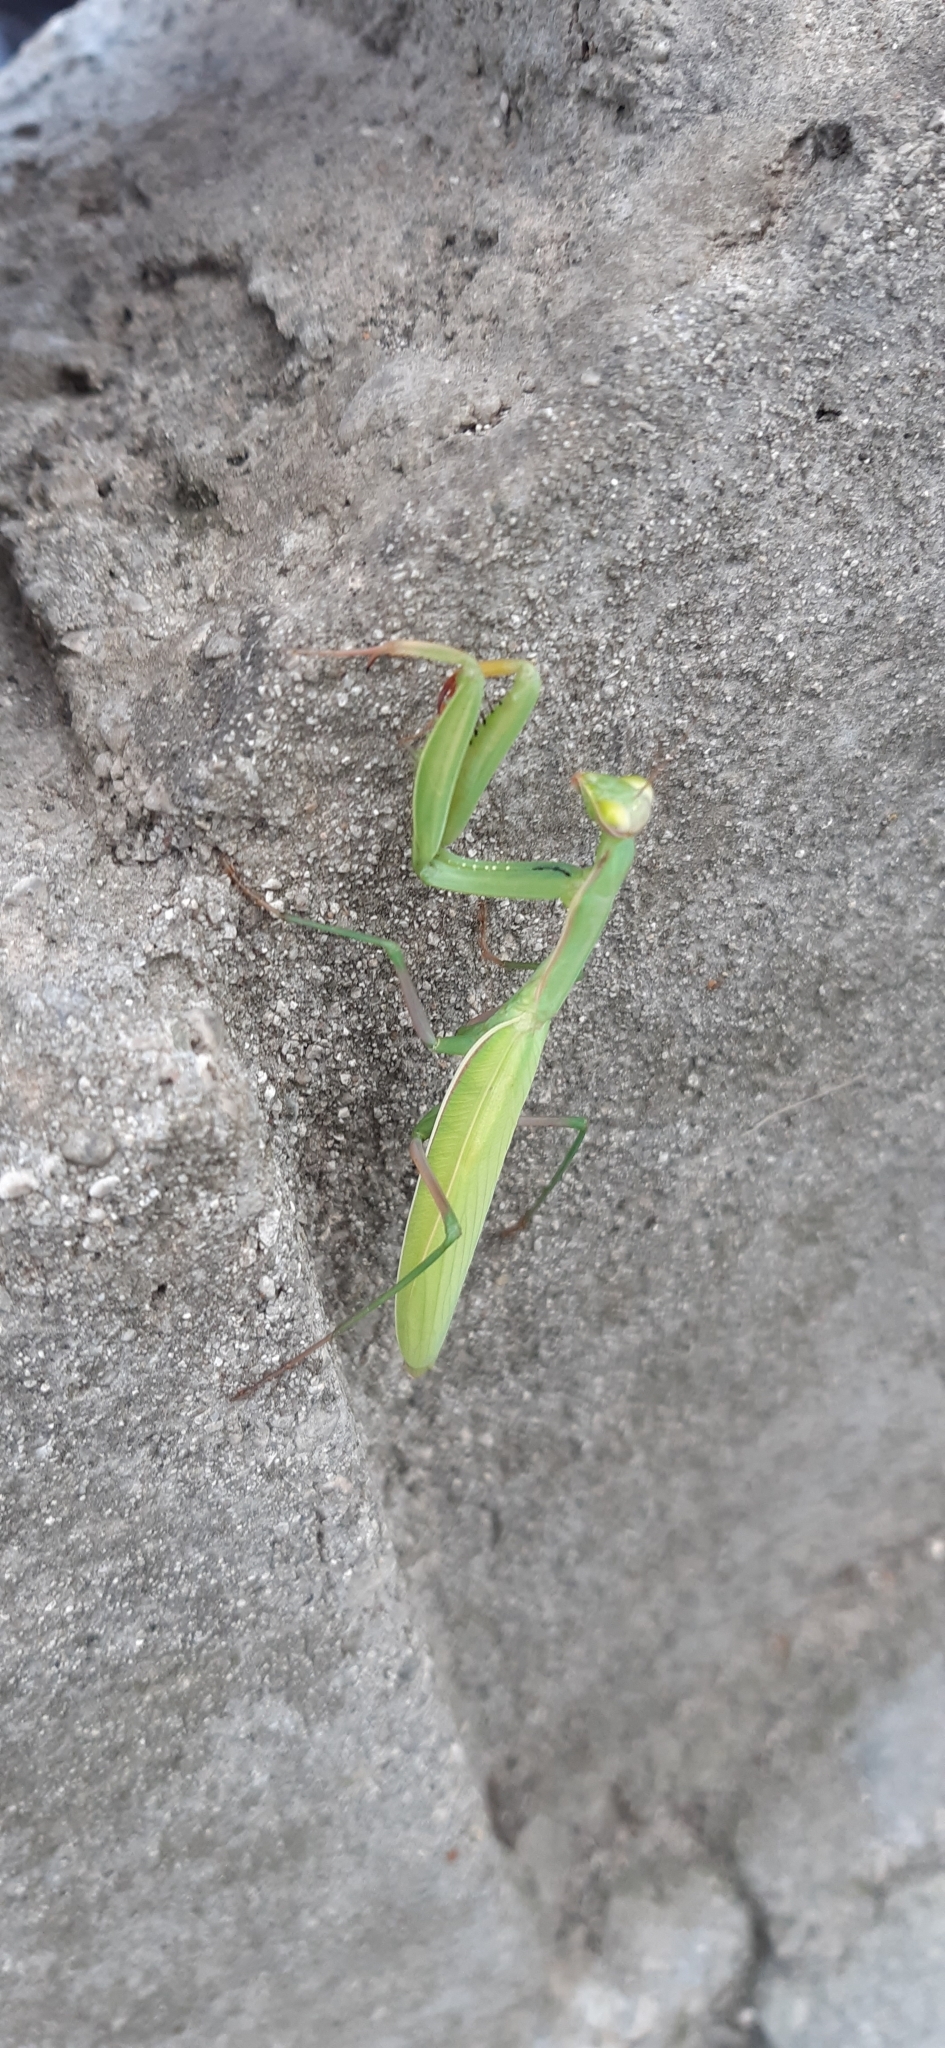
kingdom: Animalia
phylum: Arthropoda
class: Insecta
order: Mantodea
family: Mantidae
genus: Mantis
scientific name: Mantis religiosa
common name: Praying mantis
